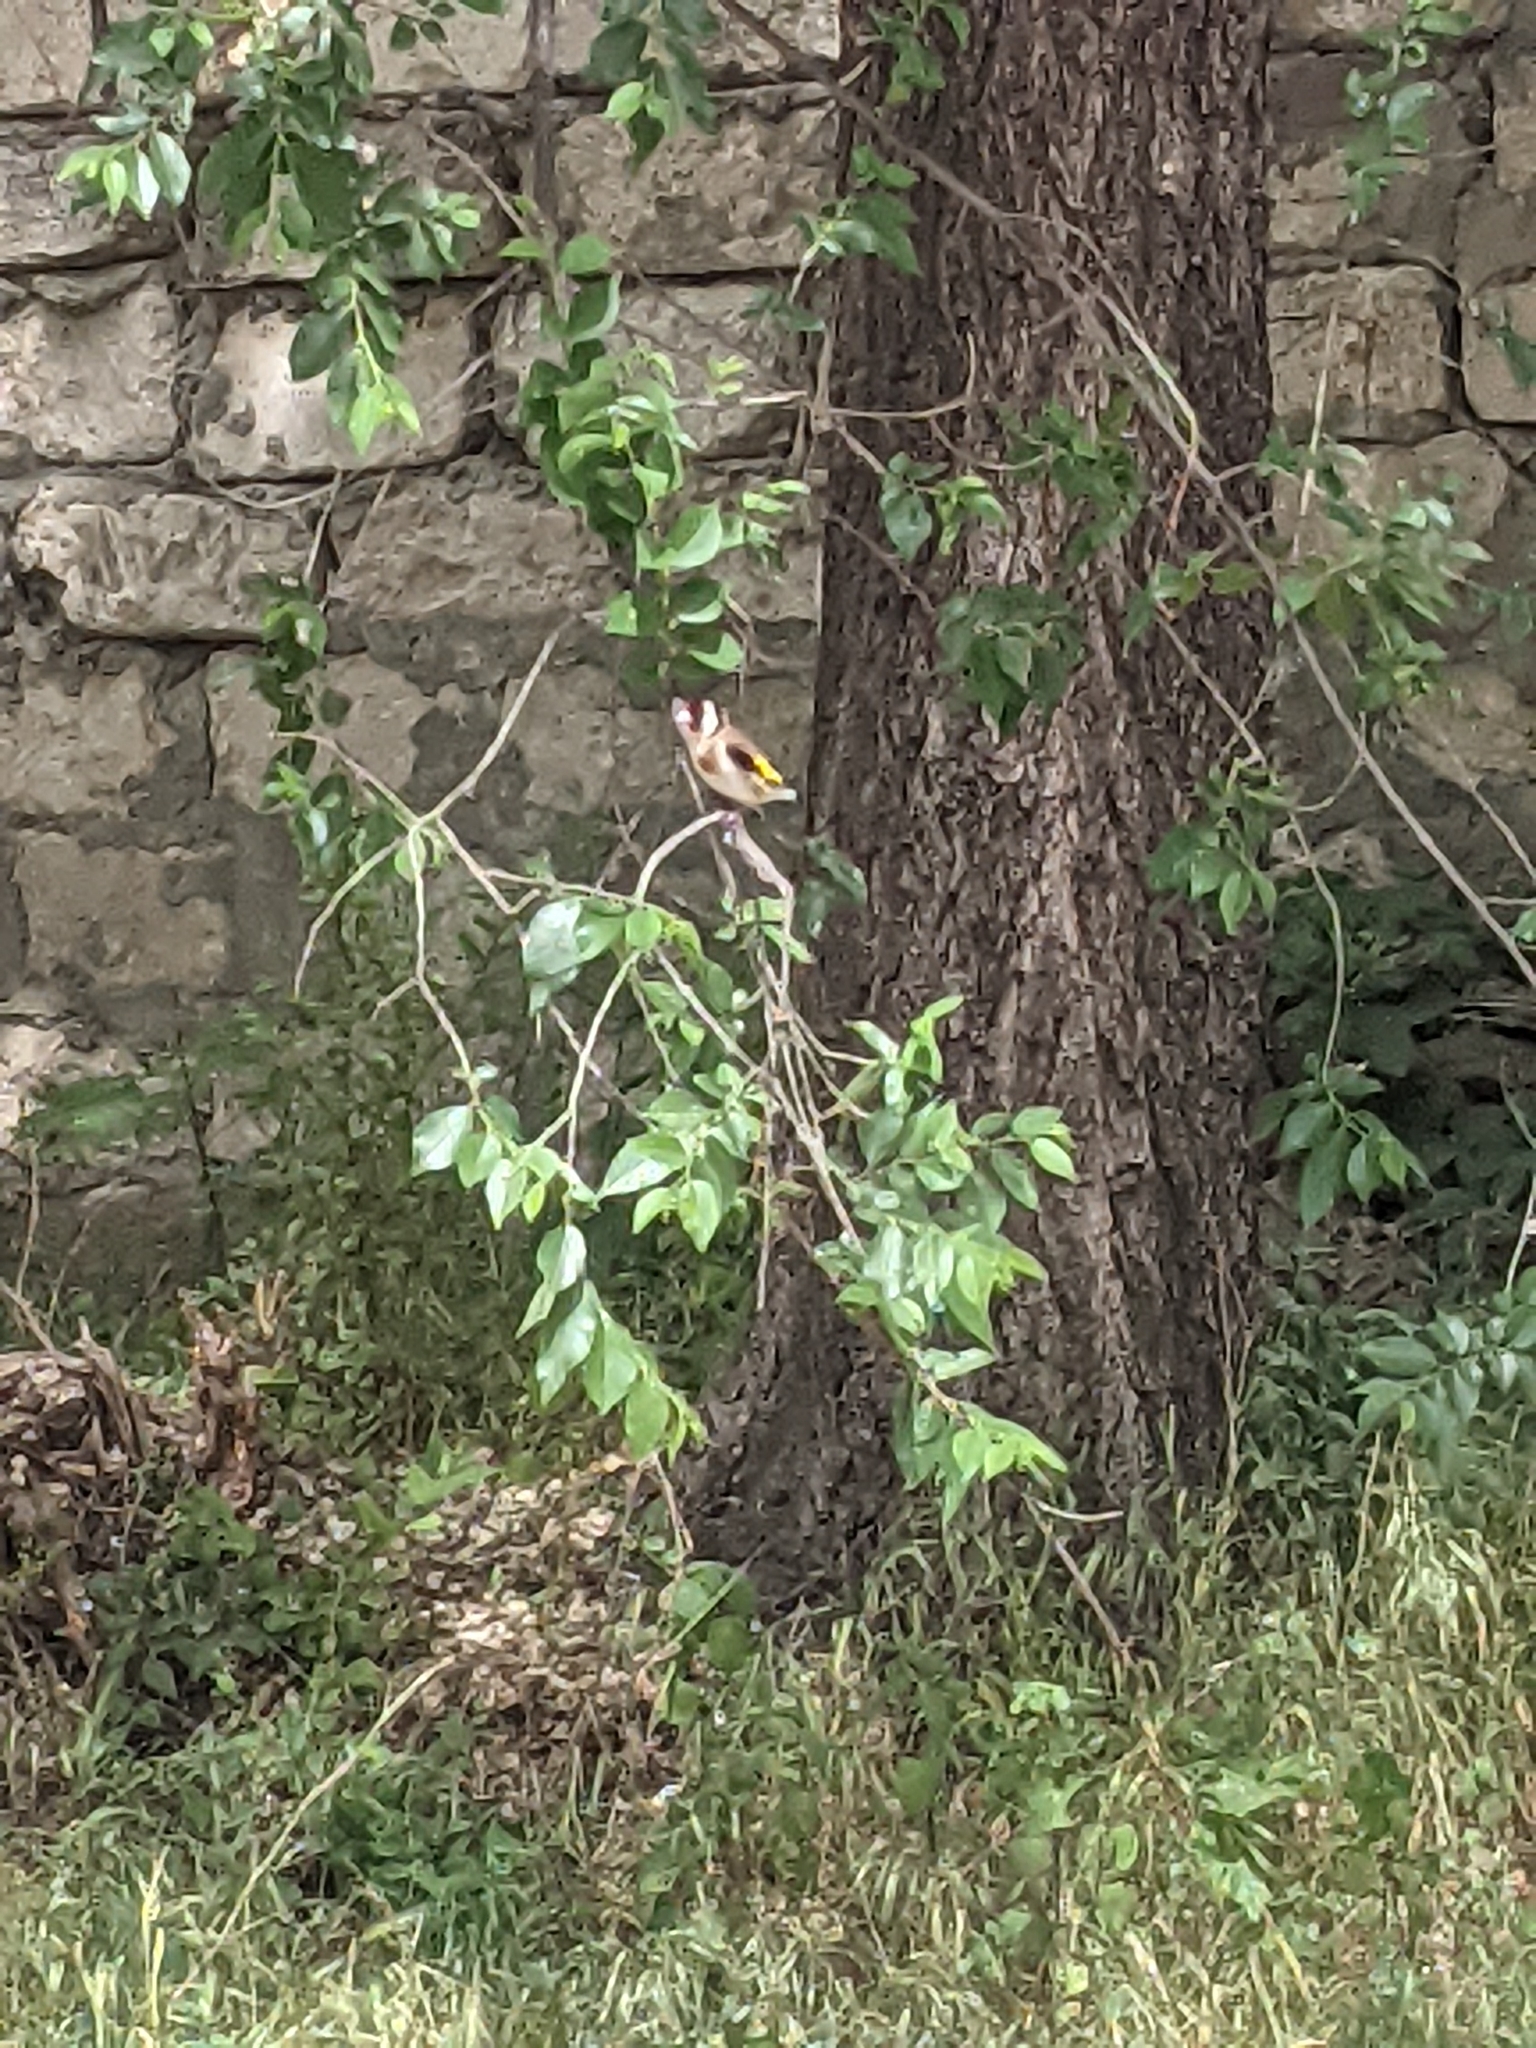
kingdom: Animalia
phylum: Chordata
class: Aves
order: Passeriformes
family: Fringillidae
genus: Carduelis
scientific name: Carduelis carduelis
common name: European goldfinch
